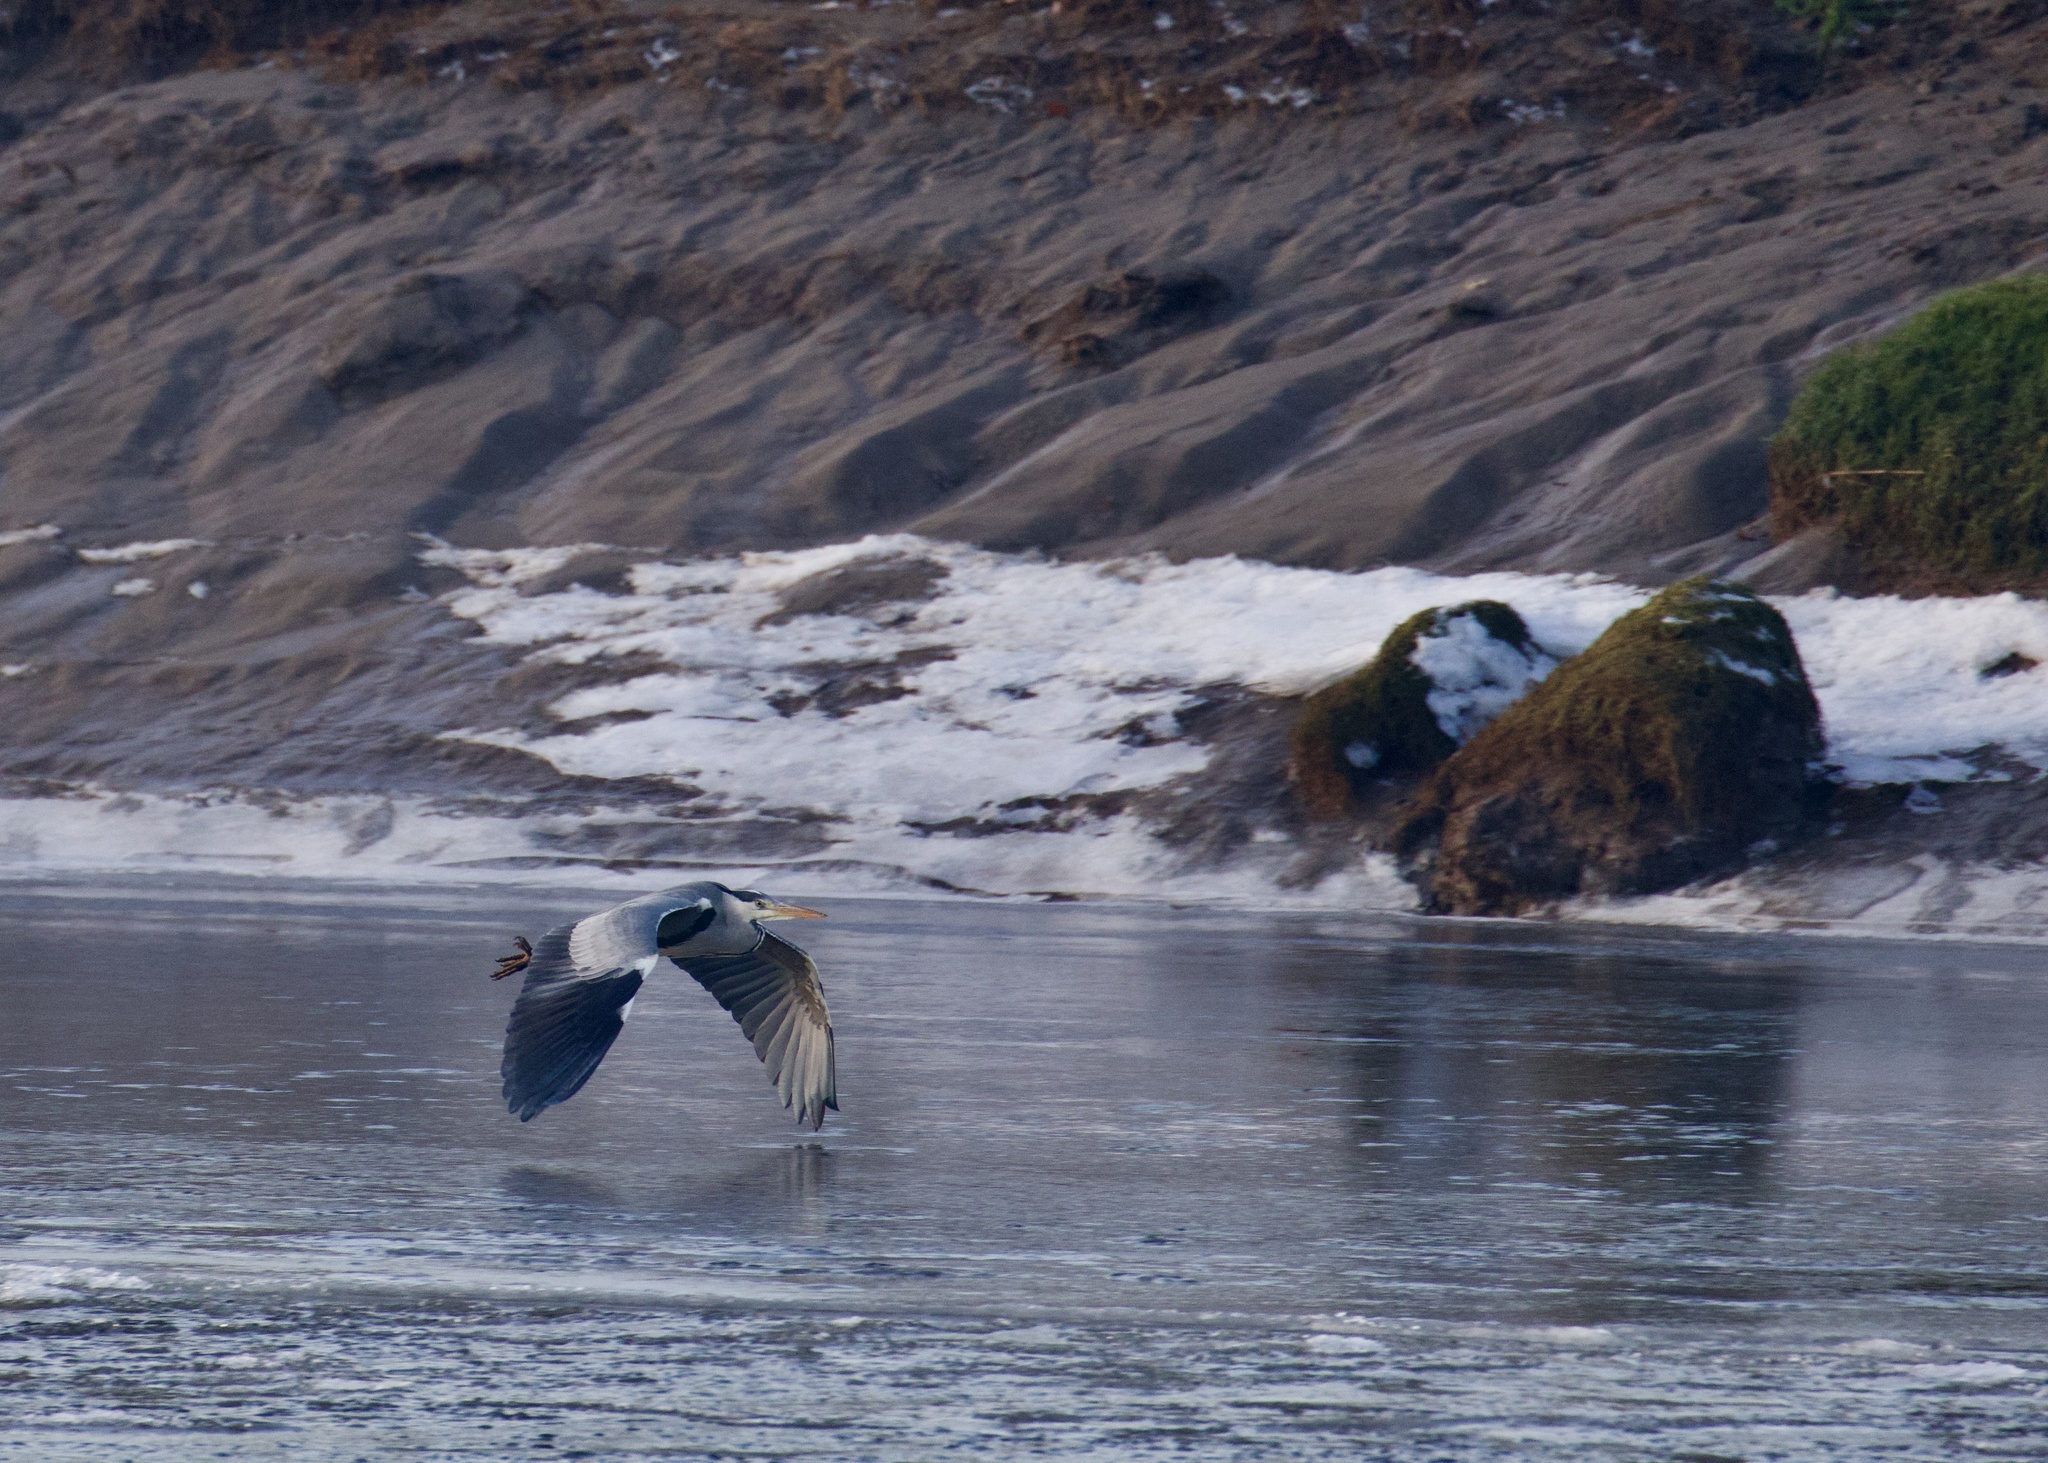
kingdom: Animalia
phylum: Chordata
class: Aves
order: Pelecaniformes
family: Ardeidae
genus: Ardea
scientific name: Ardea cinerea
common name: Grey heron
